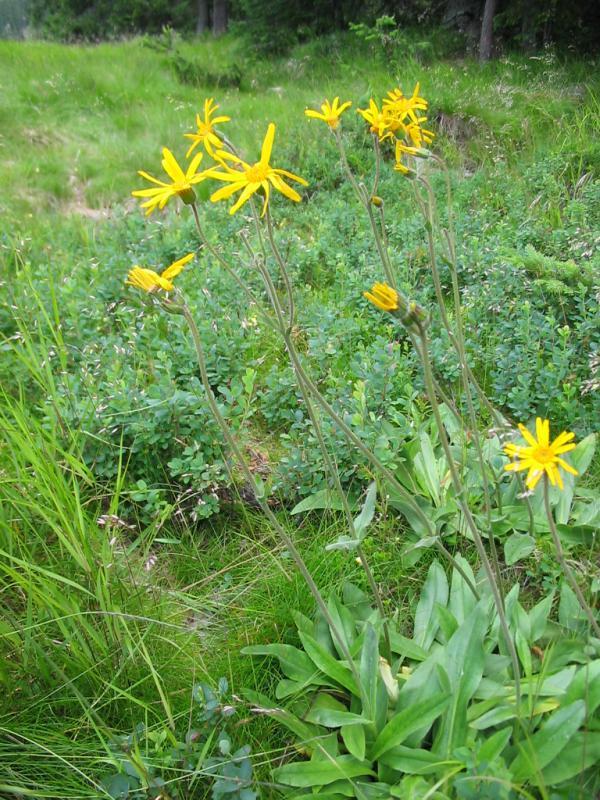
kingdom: Plantae
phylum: Tracheophyta
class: Magnoliopsida
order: Asterales
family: Asteraceae
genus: Arnica
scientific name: Arnica montana
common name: Leopard's bane
